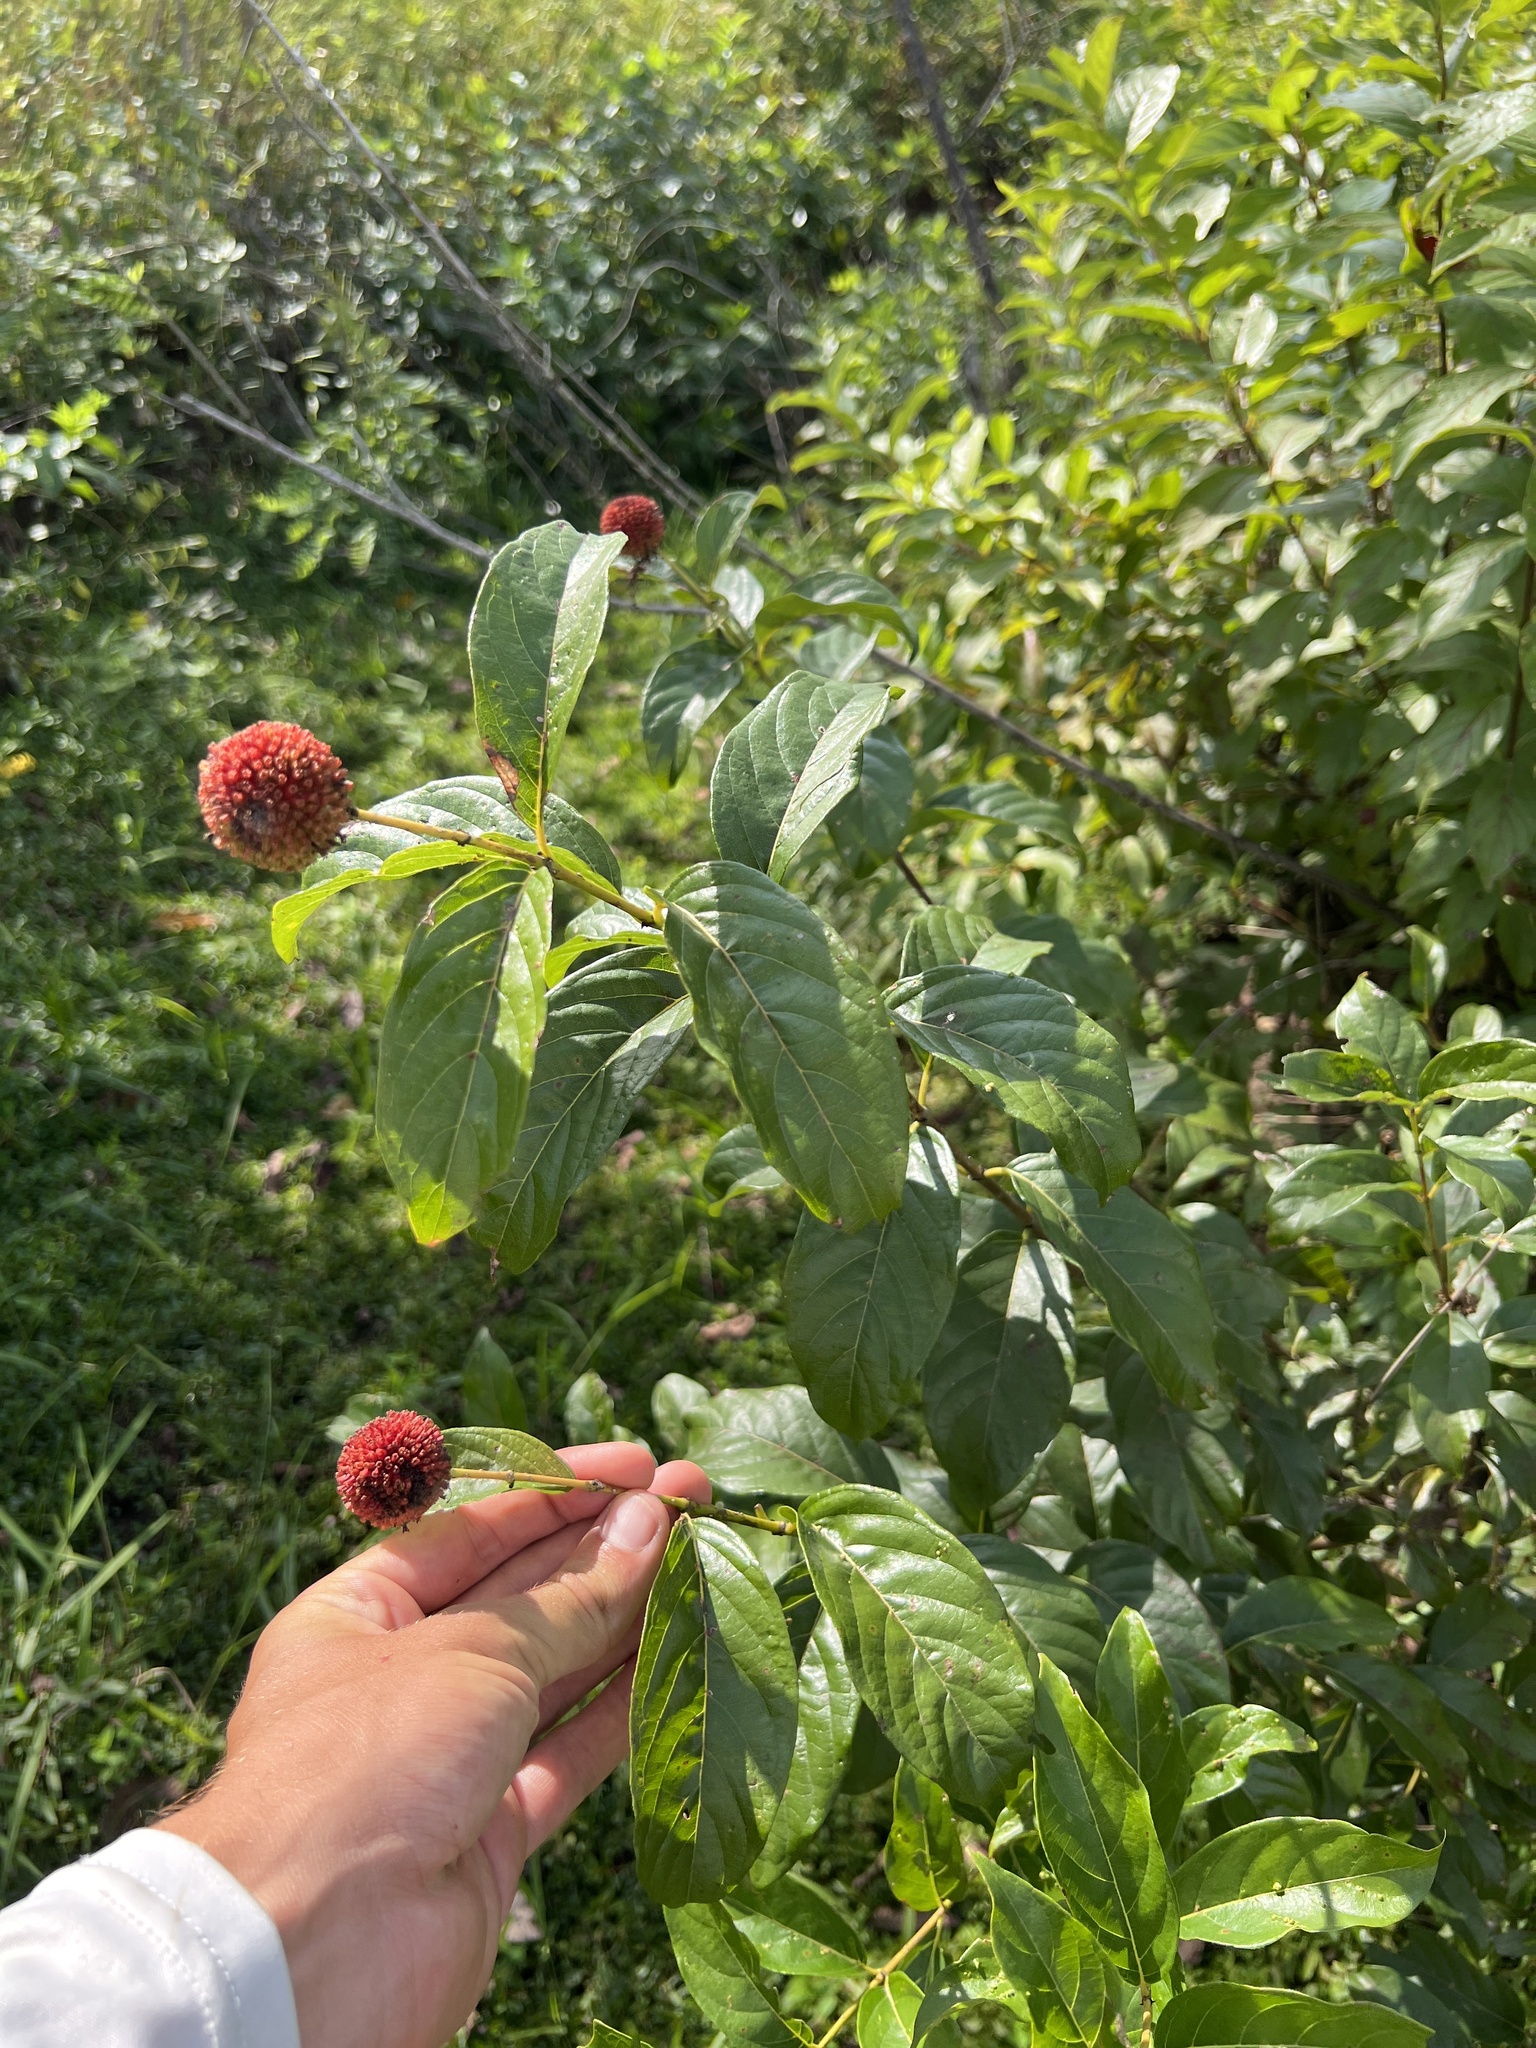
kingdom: Plantae
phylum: Tracheophyta
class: Magnoliopsida
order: Gentianales
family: Rubiaceae
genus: Cephalanthus
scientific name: Cephalanthus occidentalis
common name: Button-willow
